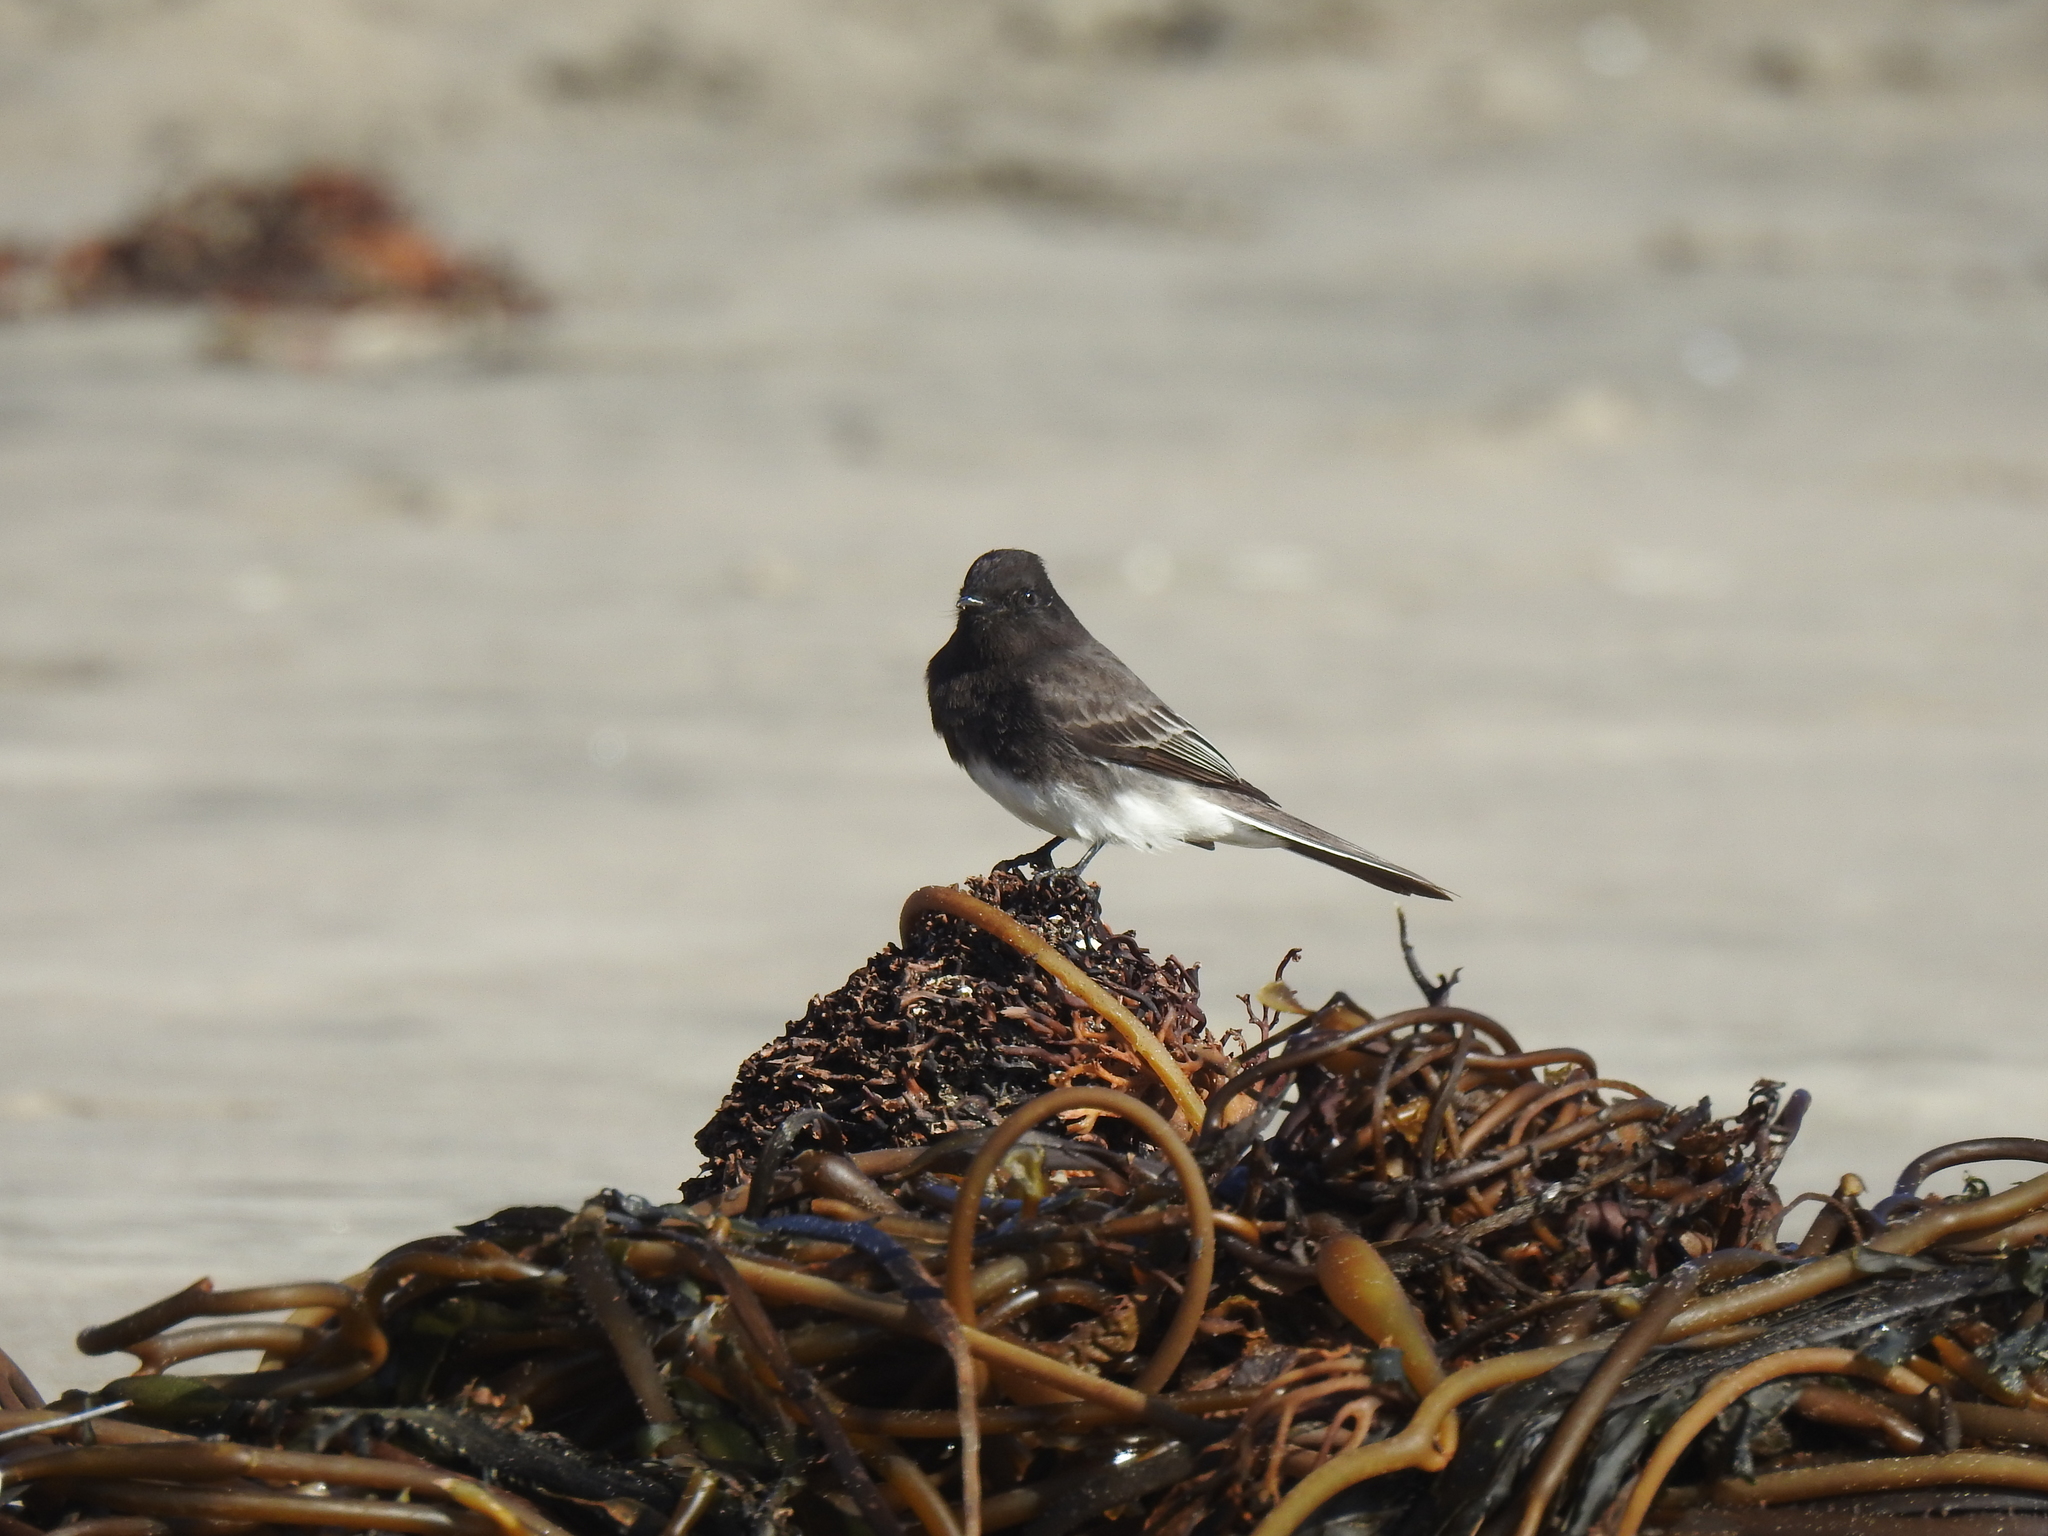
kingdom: Animalia
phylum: Chordata
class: Aves
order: Passeriformes
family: Tyrannidae
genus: Sayornis
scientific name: Sayornis nigricans
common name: Black phoebe
